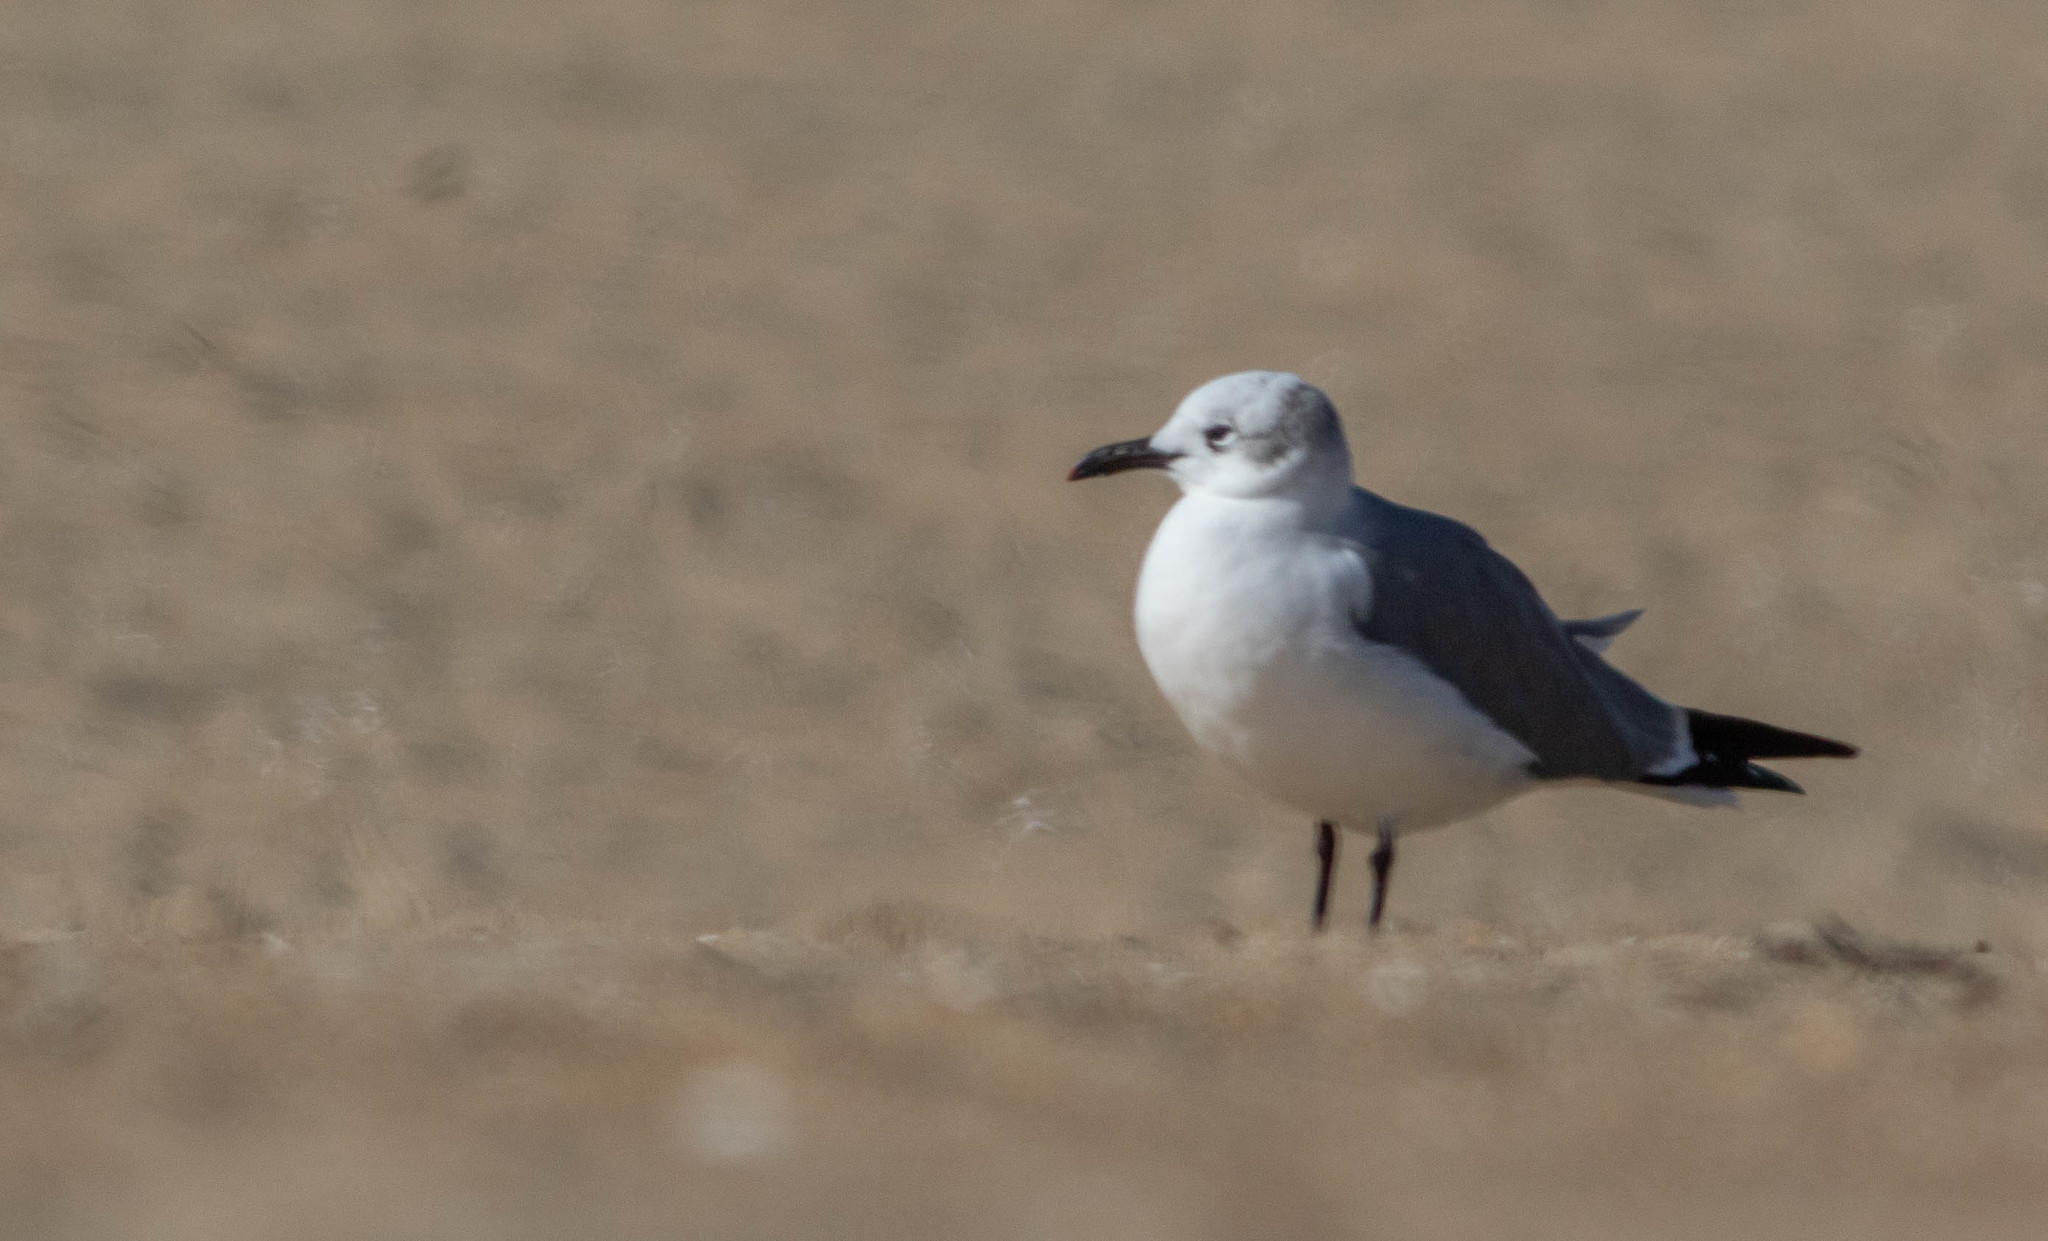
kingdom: Animalia
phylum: Chordata
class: Aves
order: Charadriiformes
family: Laridae
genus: Leucophaeus
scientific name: Leucophaeus atricilla
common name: Laughing gull
